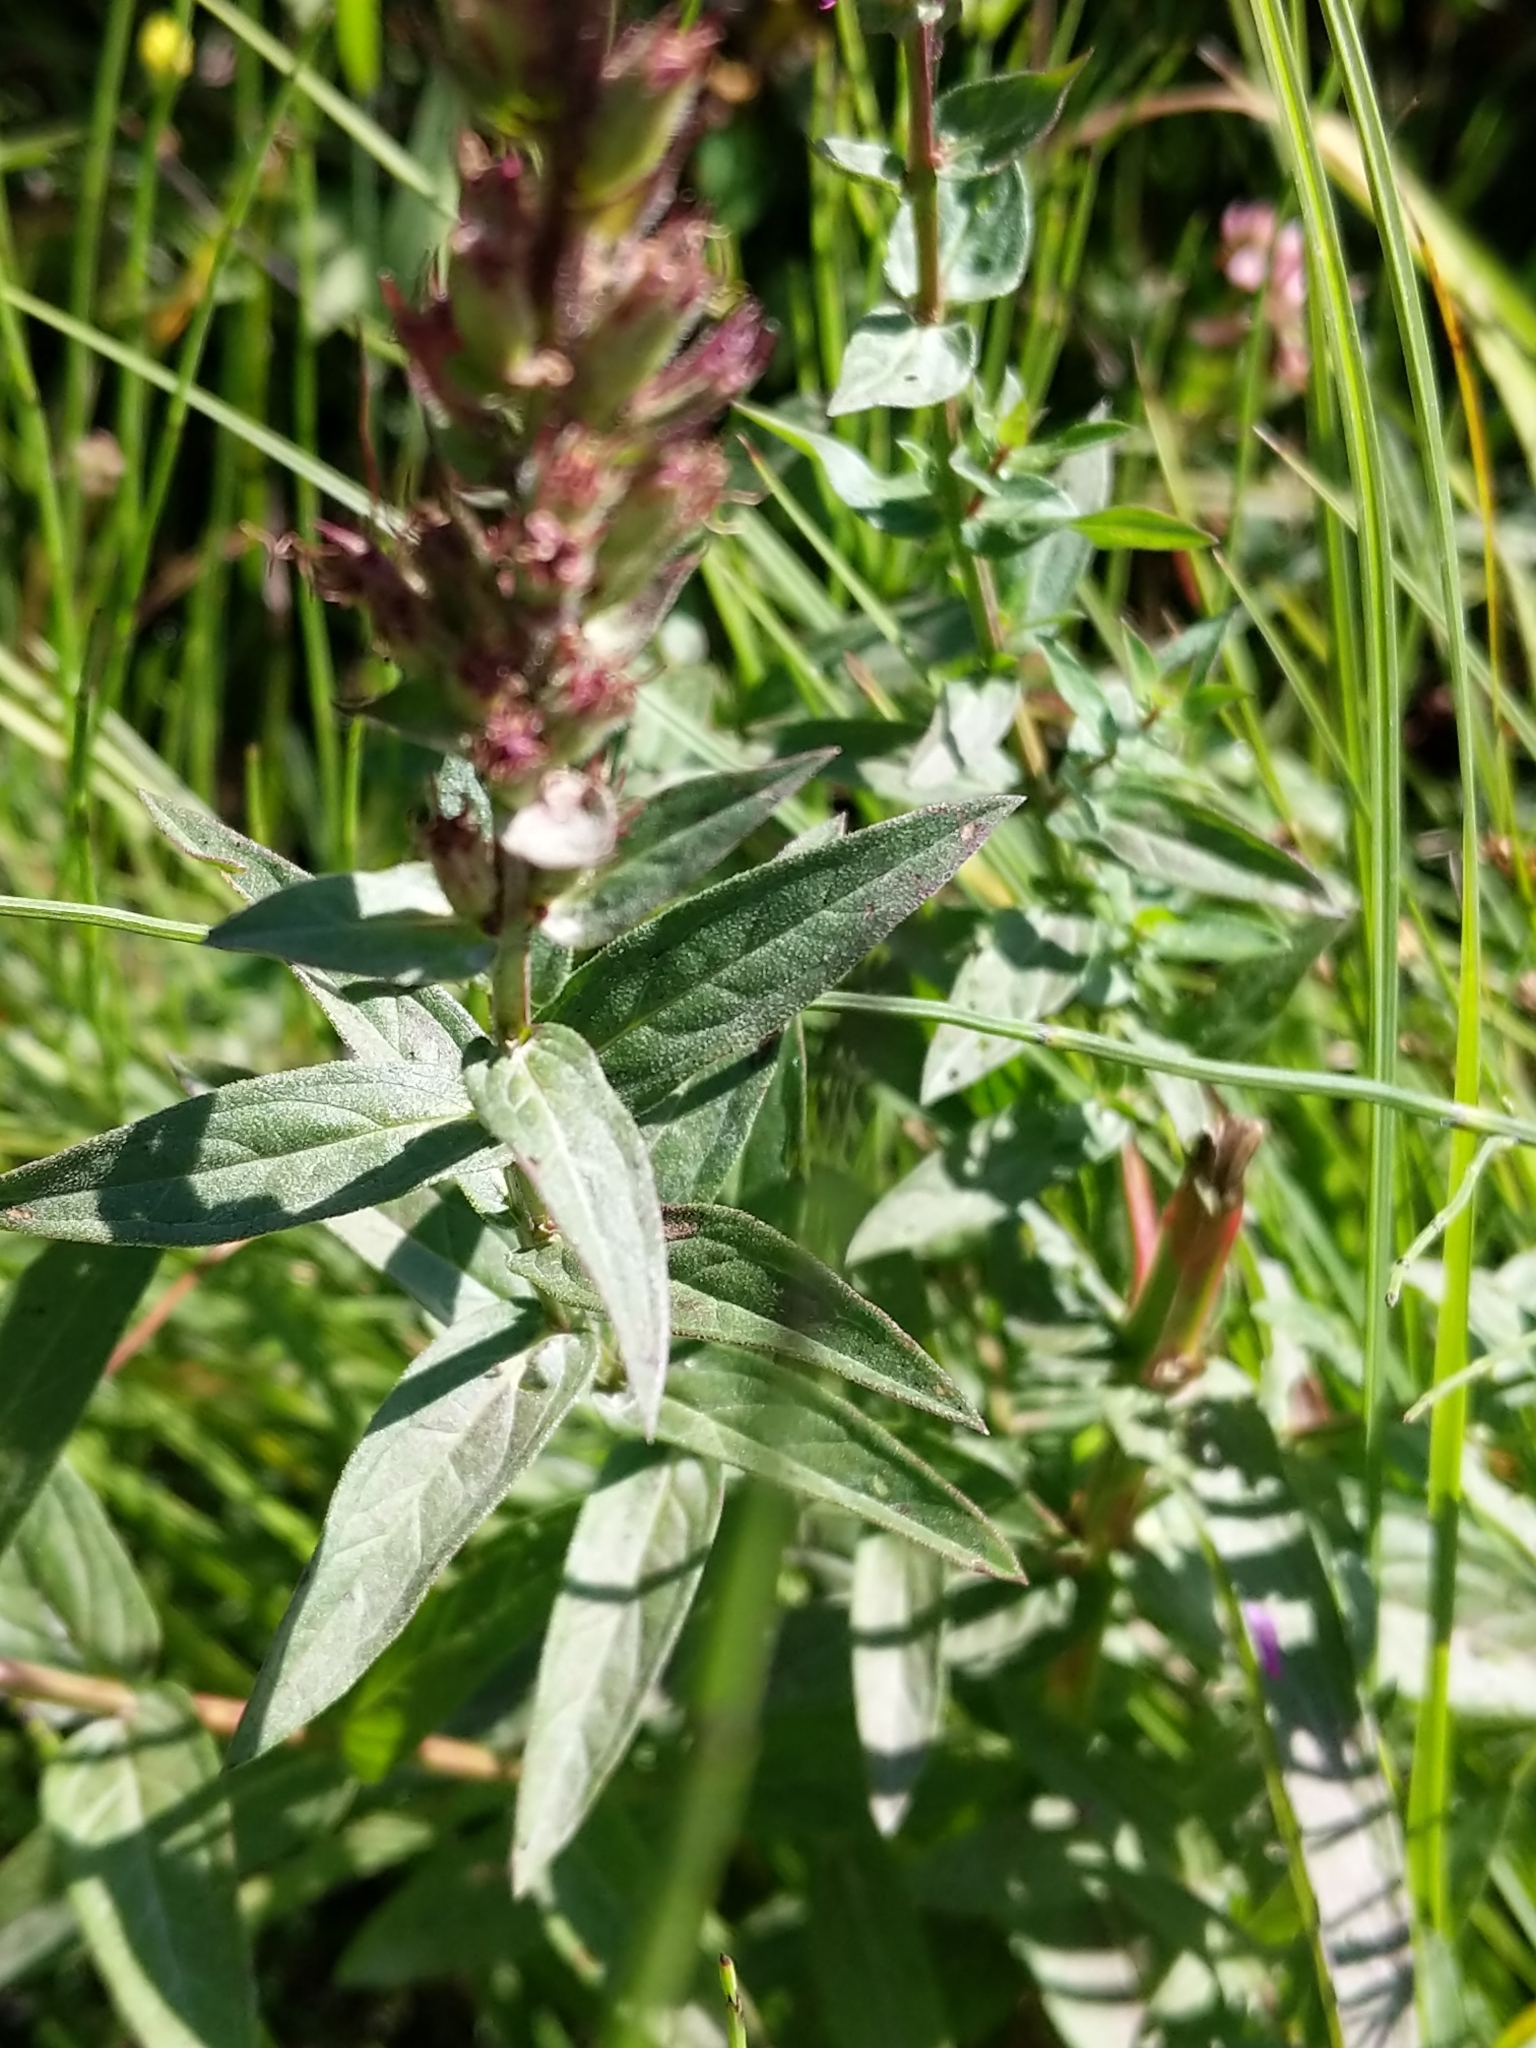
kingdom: Plantae
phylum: Tracheophyta
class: Magnoliopsida
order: Myrtales
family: Lythraceae
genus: Lythrum
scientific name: Lythrum salicaria
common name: Purple loosestrife
